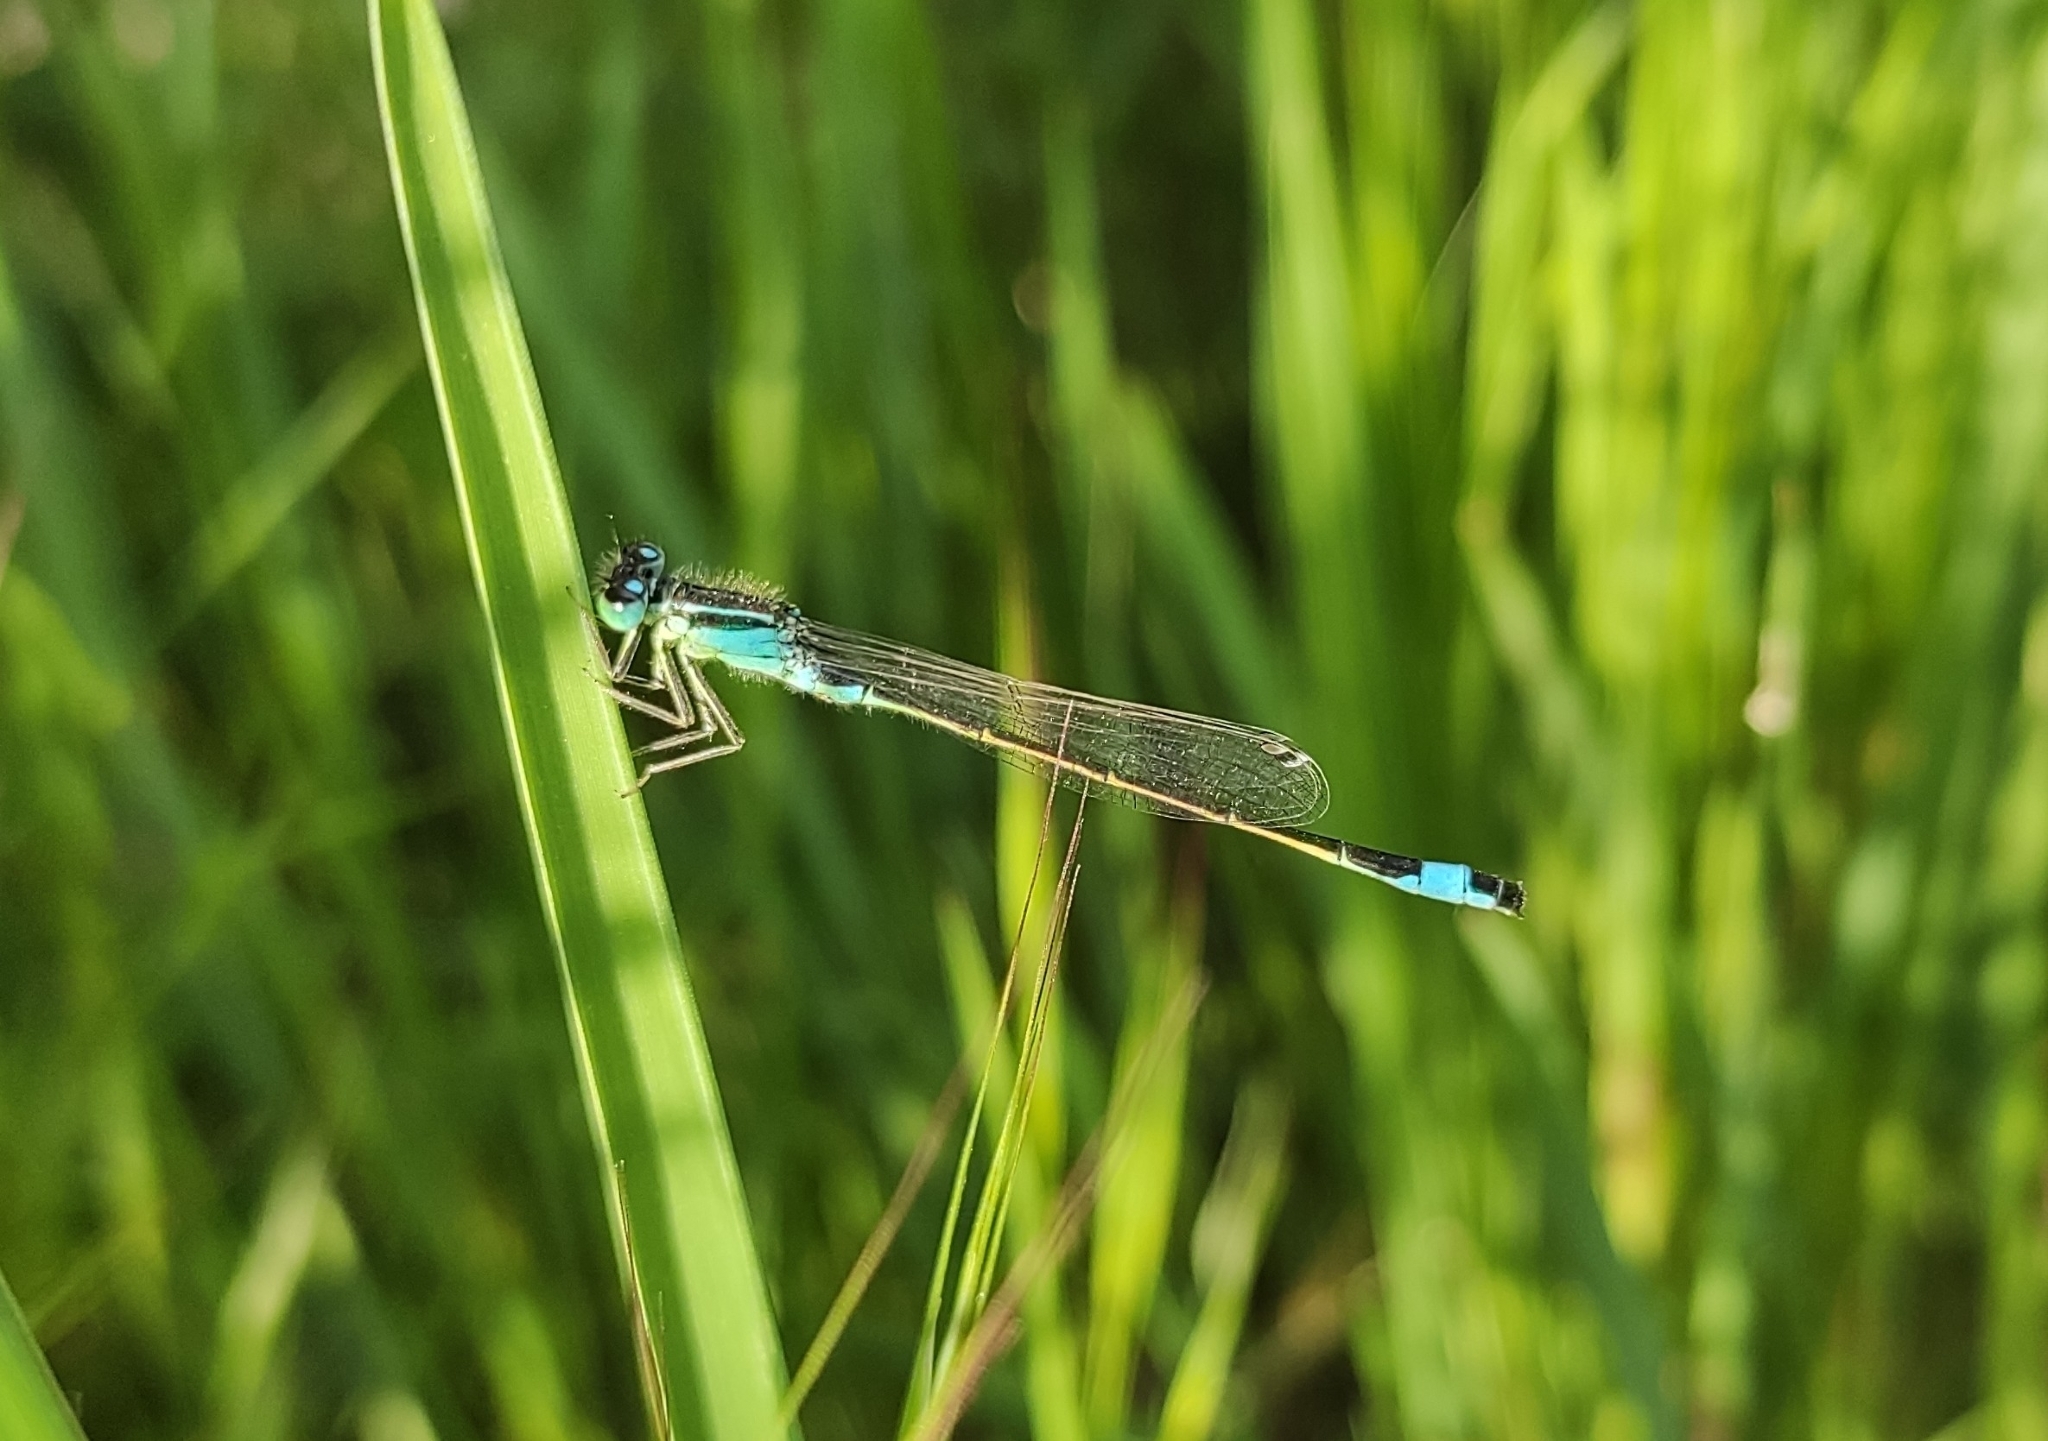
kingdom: Animalia
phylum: Arthropoda
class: Insecta
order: Odonata
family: Coenagrionidae
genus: Ischnura
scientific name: Ischnura elegans
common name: Blue-tailed damselfly
